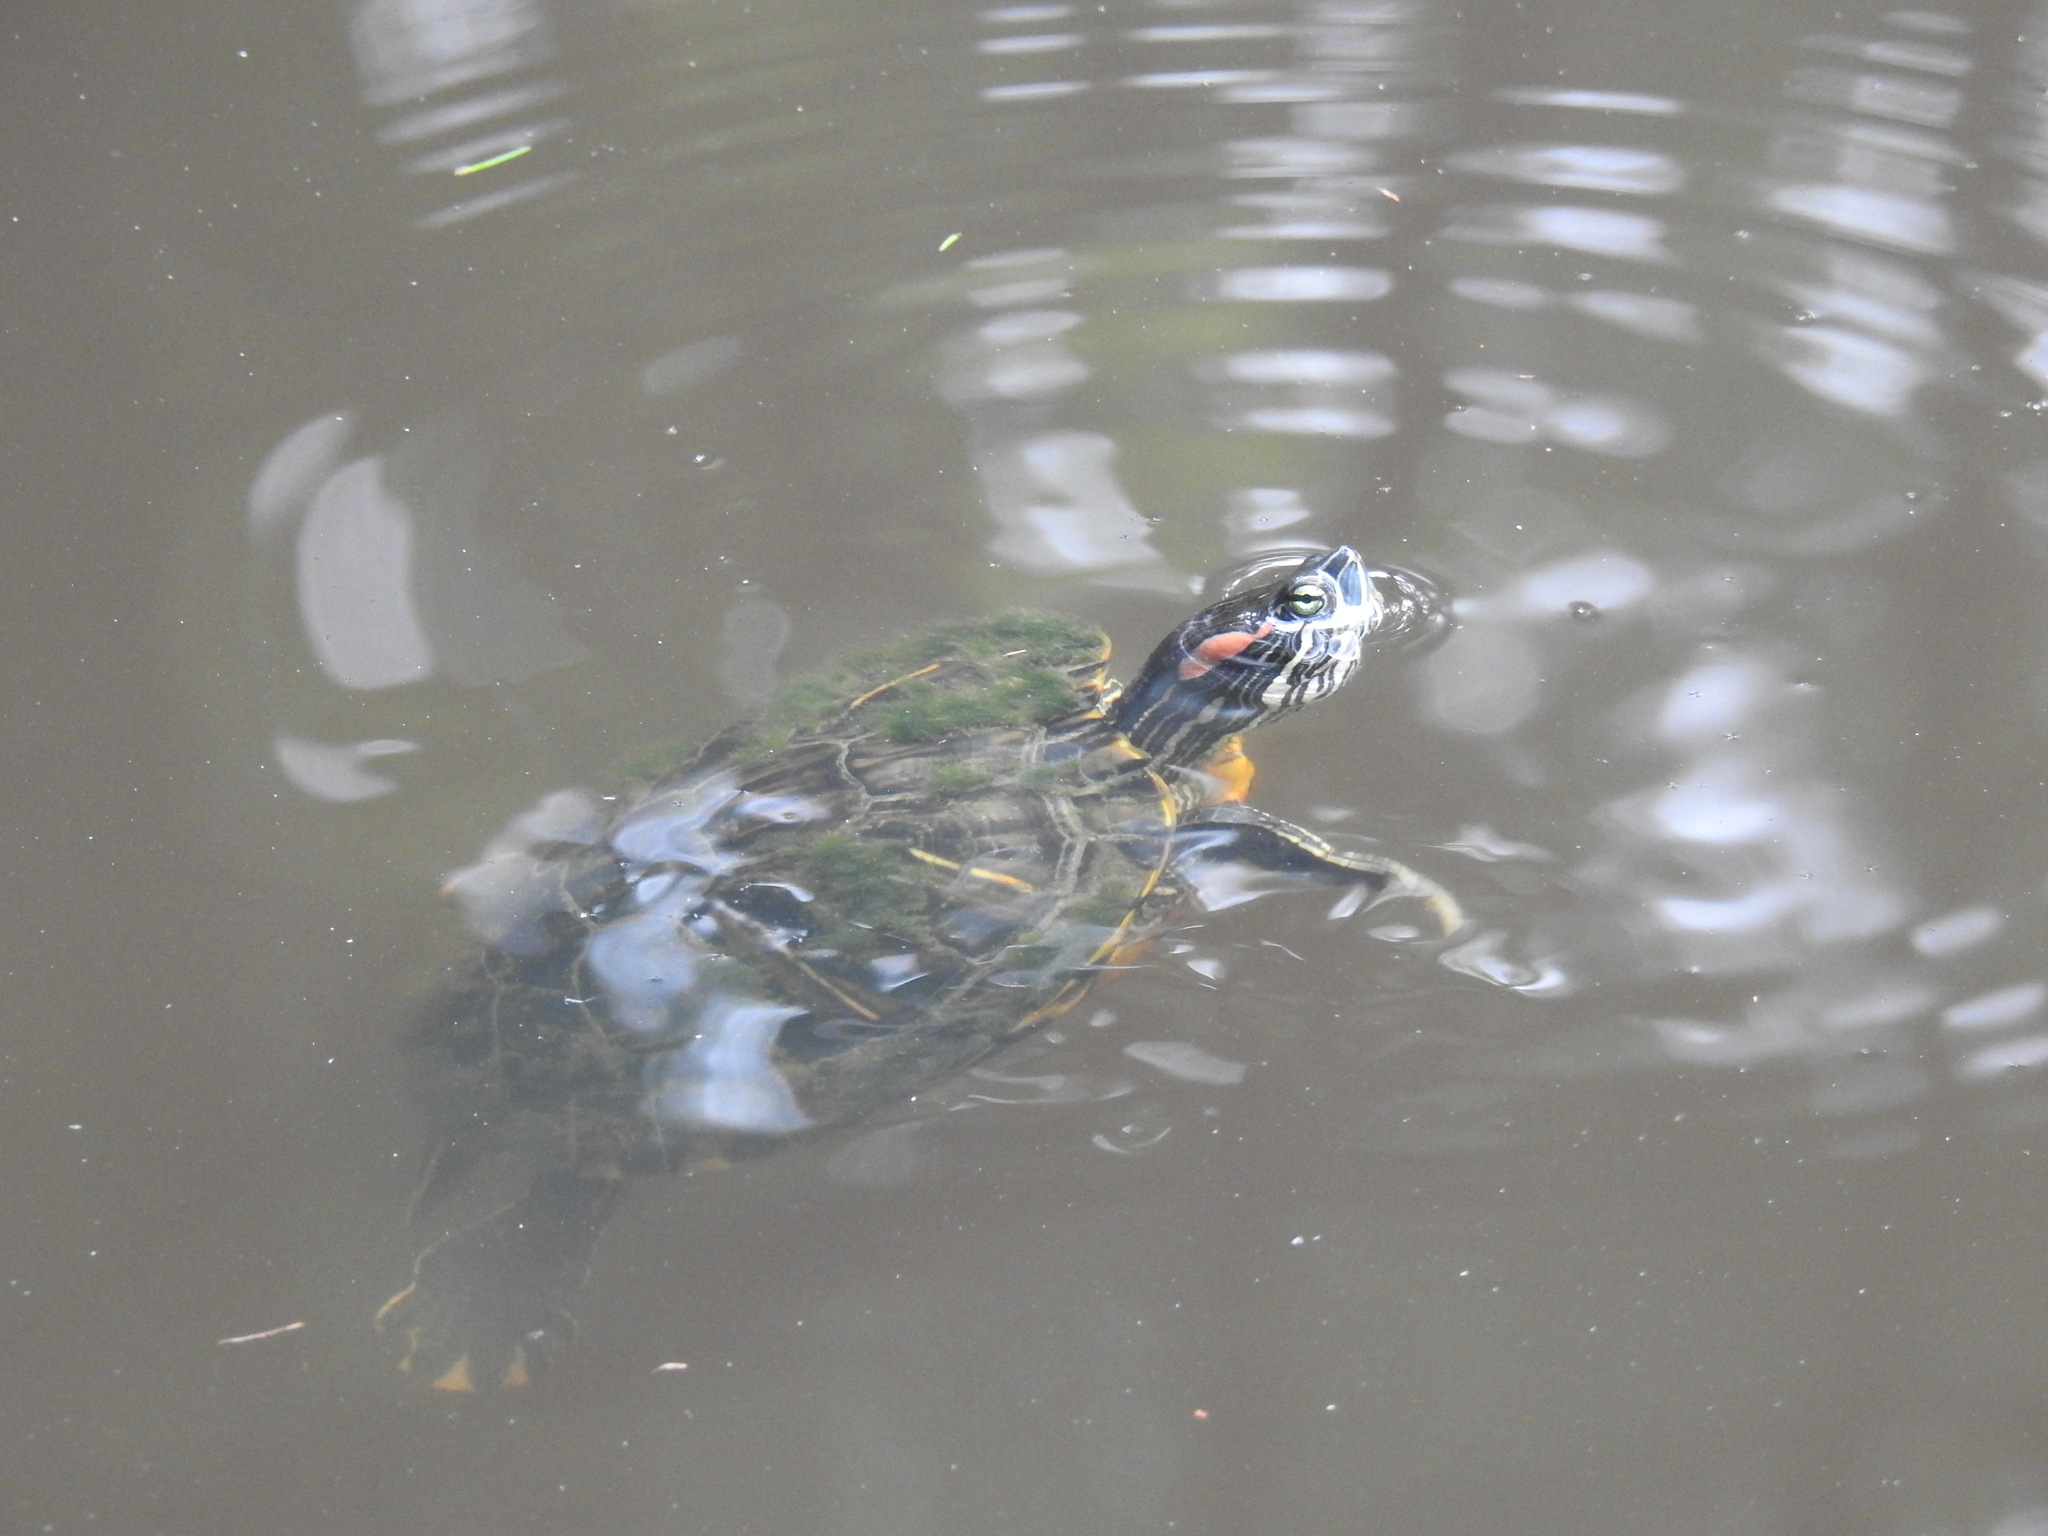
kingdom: Animalia
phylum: Chordata
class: Testudines
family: Emydidae
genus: Trachemys
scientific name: Trachemys scripta
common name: Slider
